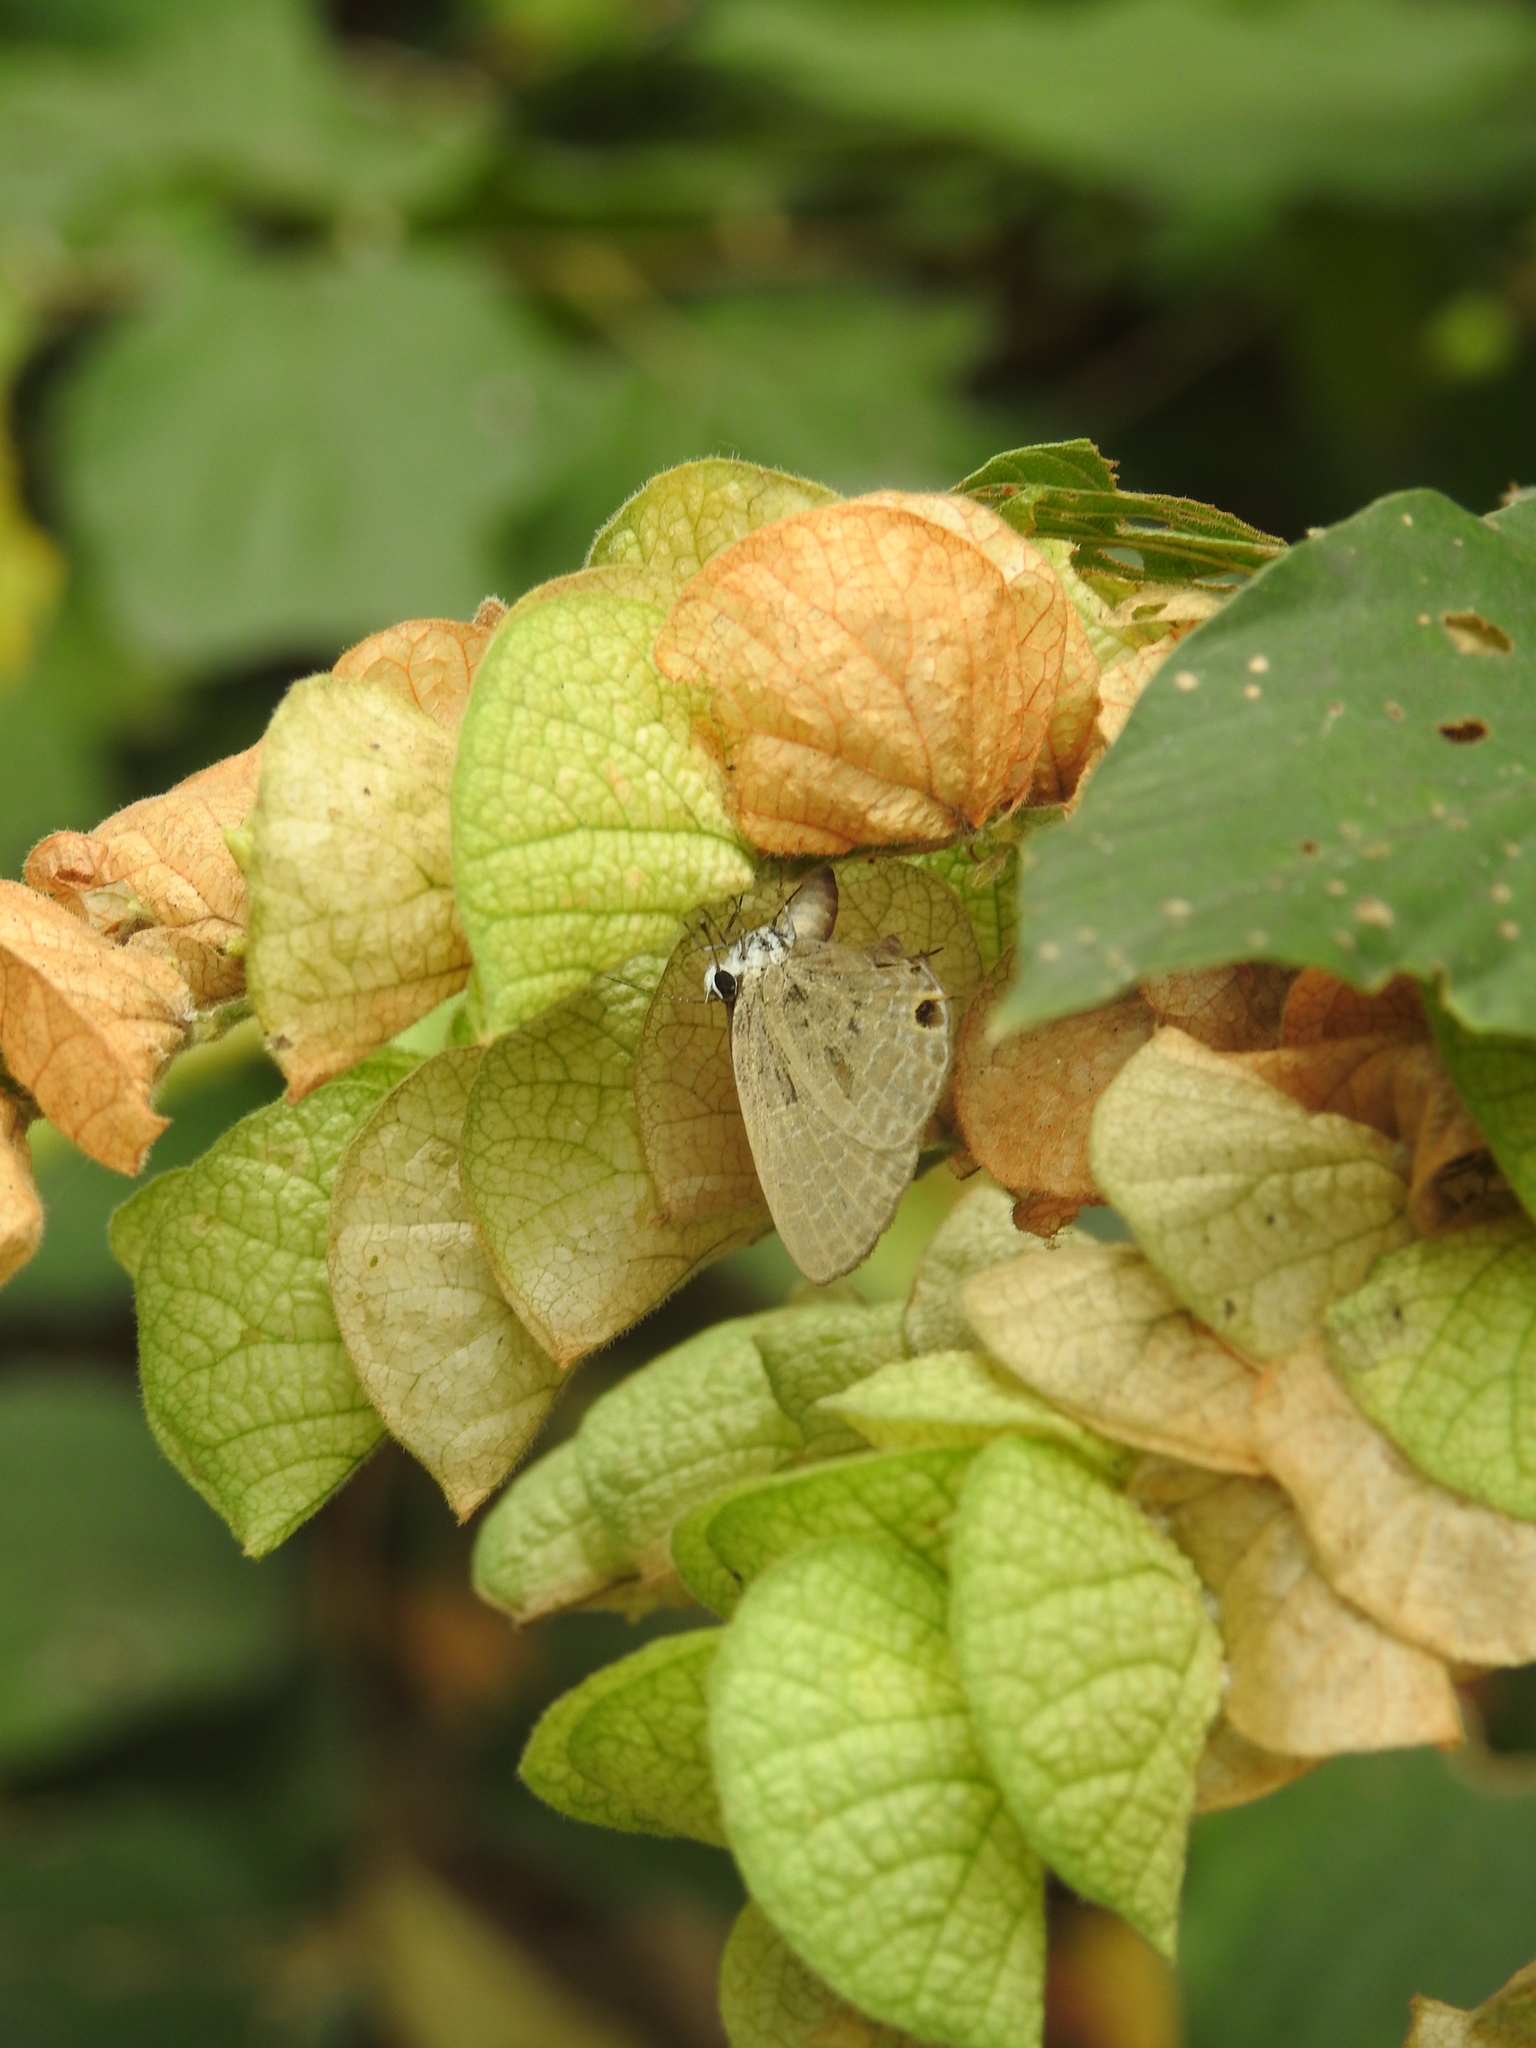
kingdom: Animalia
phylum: Arthropoda
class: Insecta
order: Lepidoptera
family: Lycaenidae
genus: Jamides
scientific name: Jamides bochus
